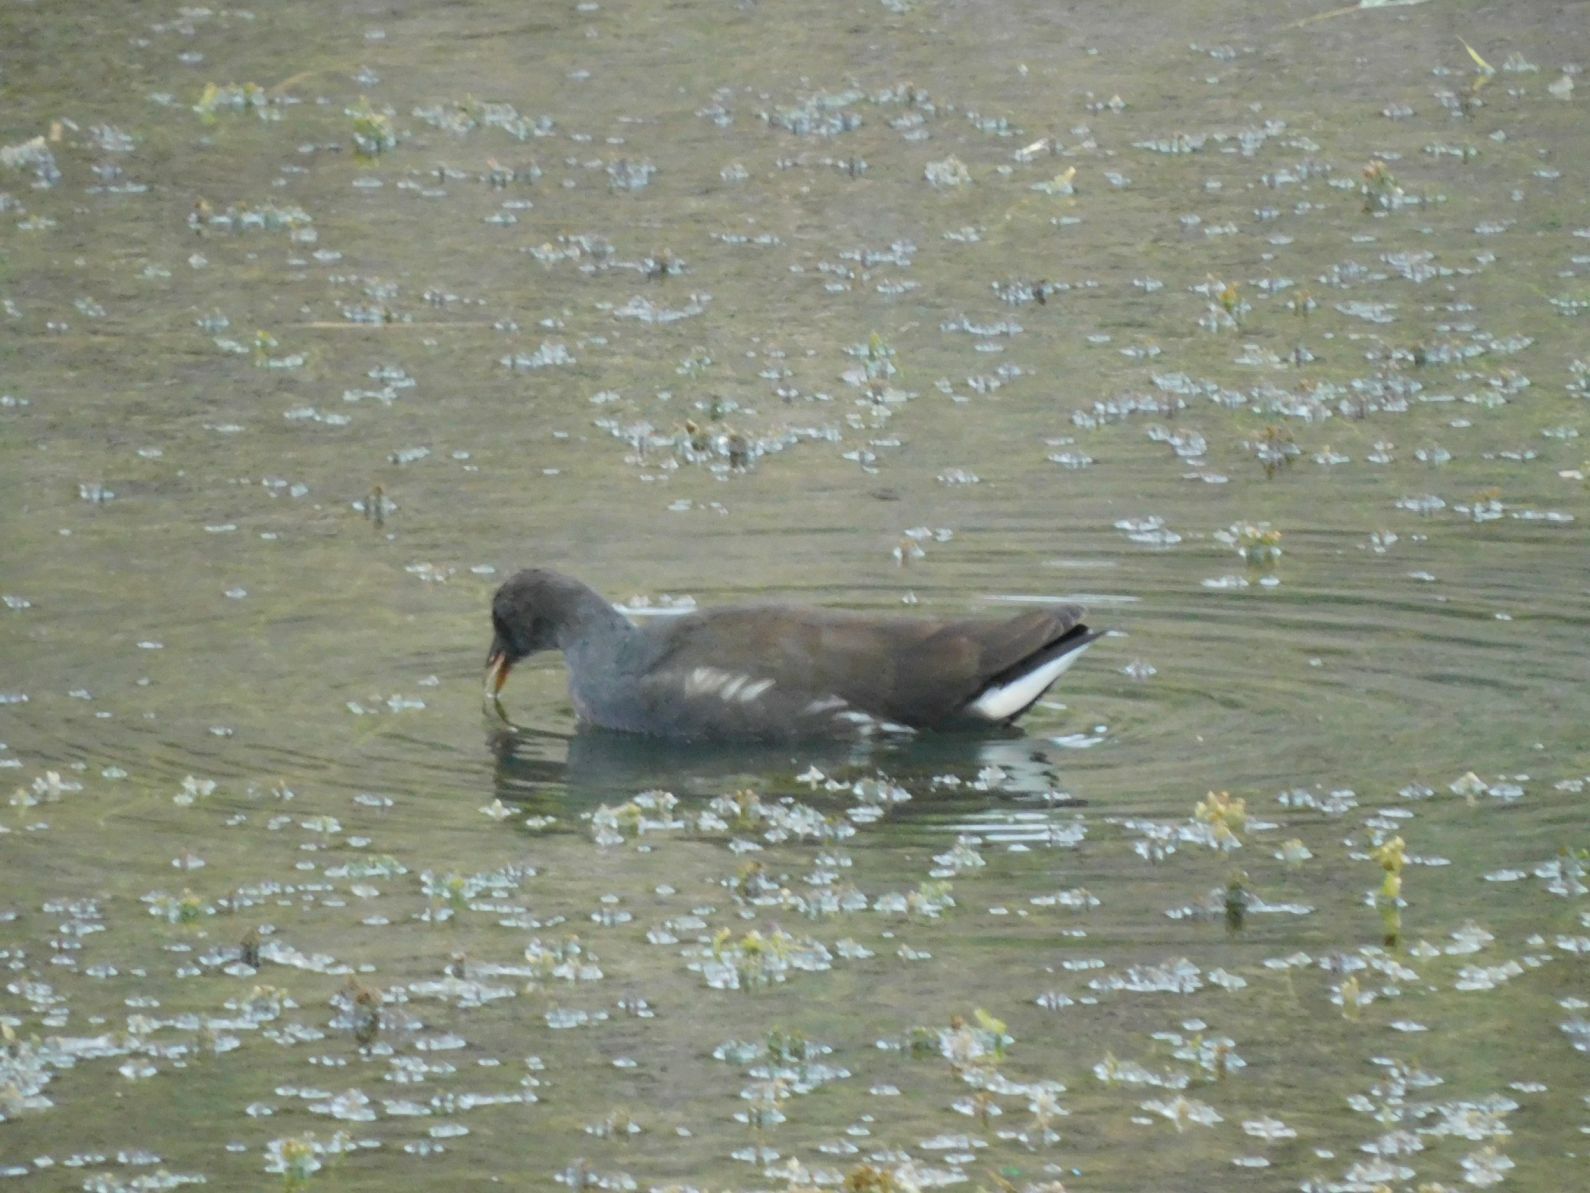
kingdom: Animalia
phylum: Chordata
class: Aves
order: Gruiformes
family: Rallidae
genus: Gallinula
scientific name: Gallinula chloropus
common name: Common moorhen
